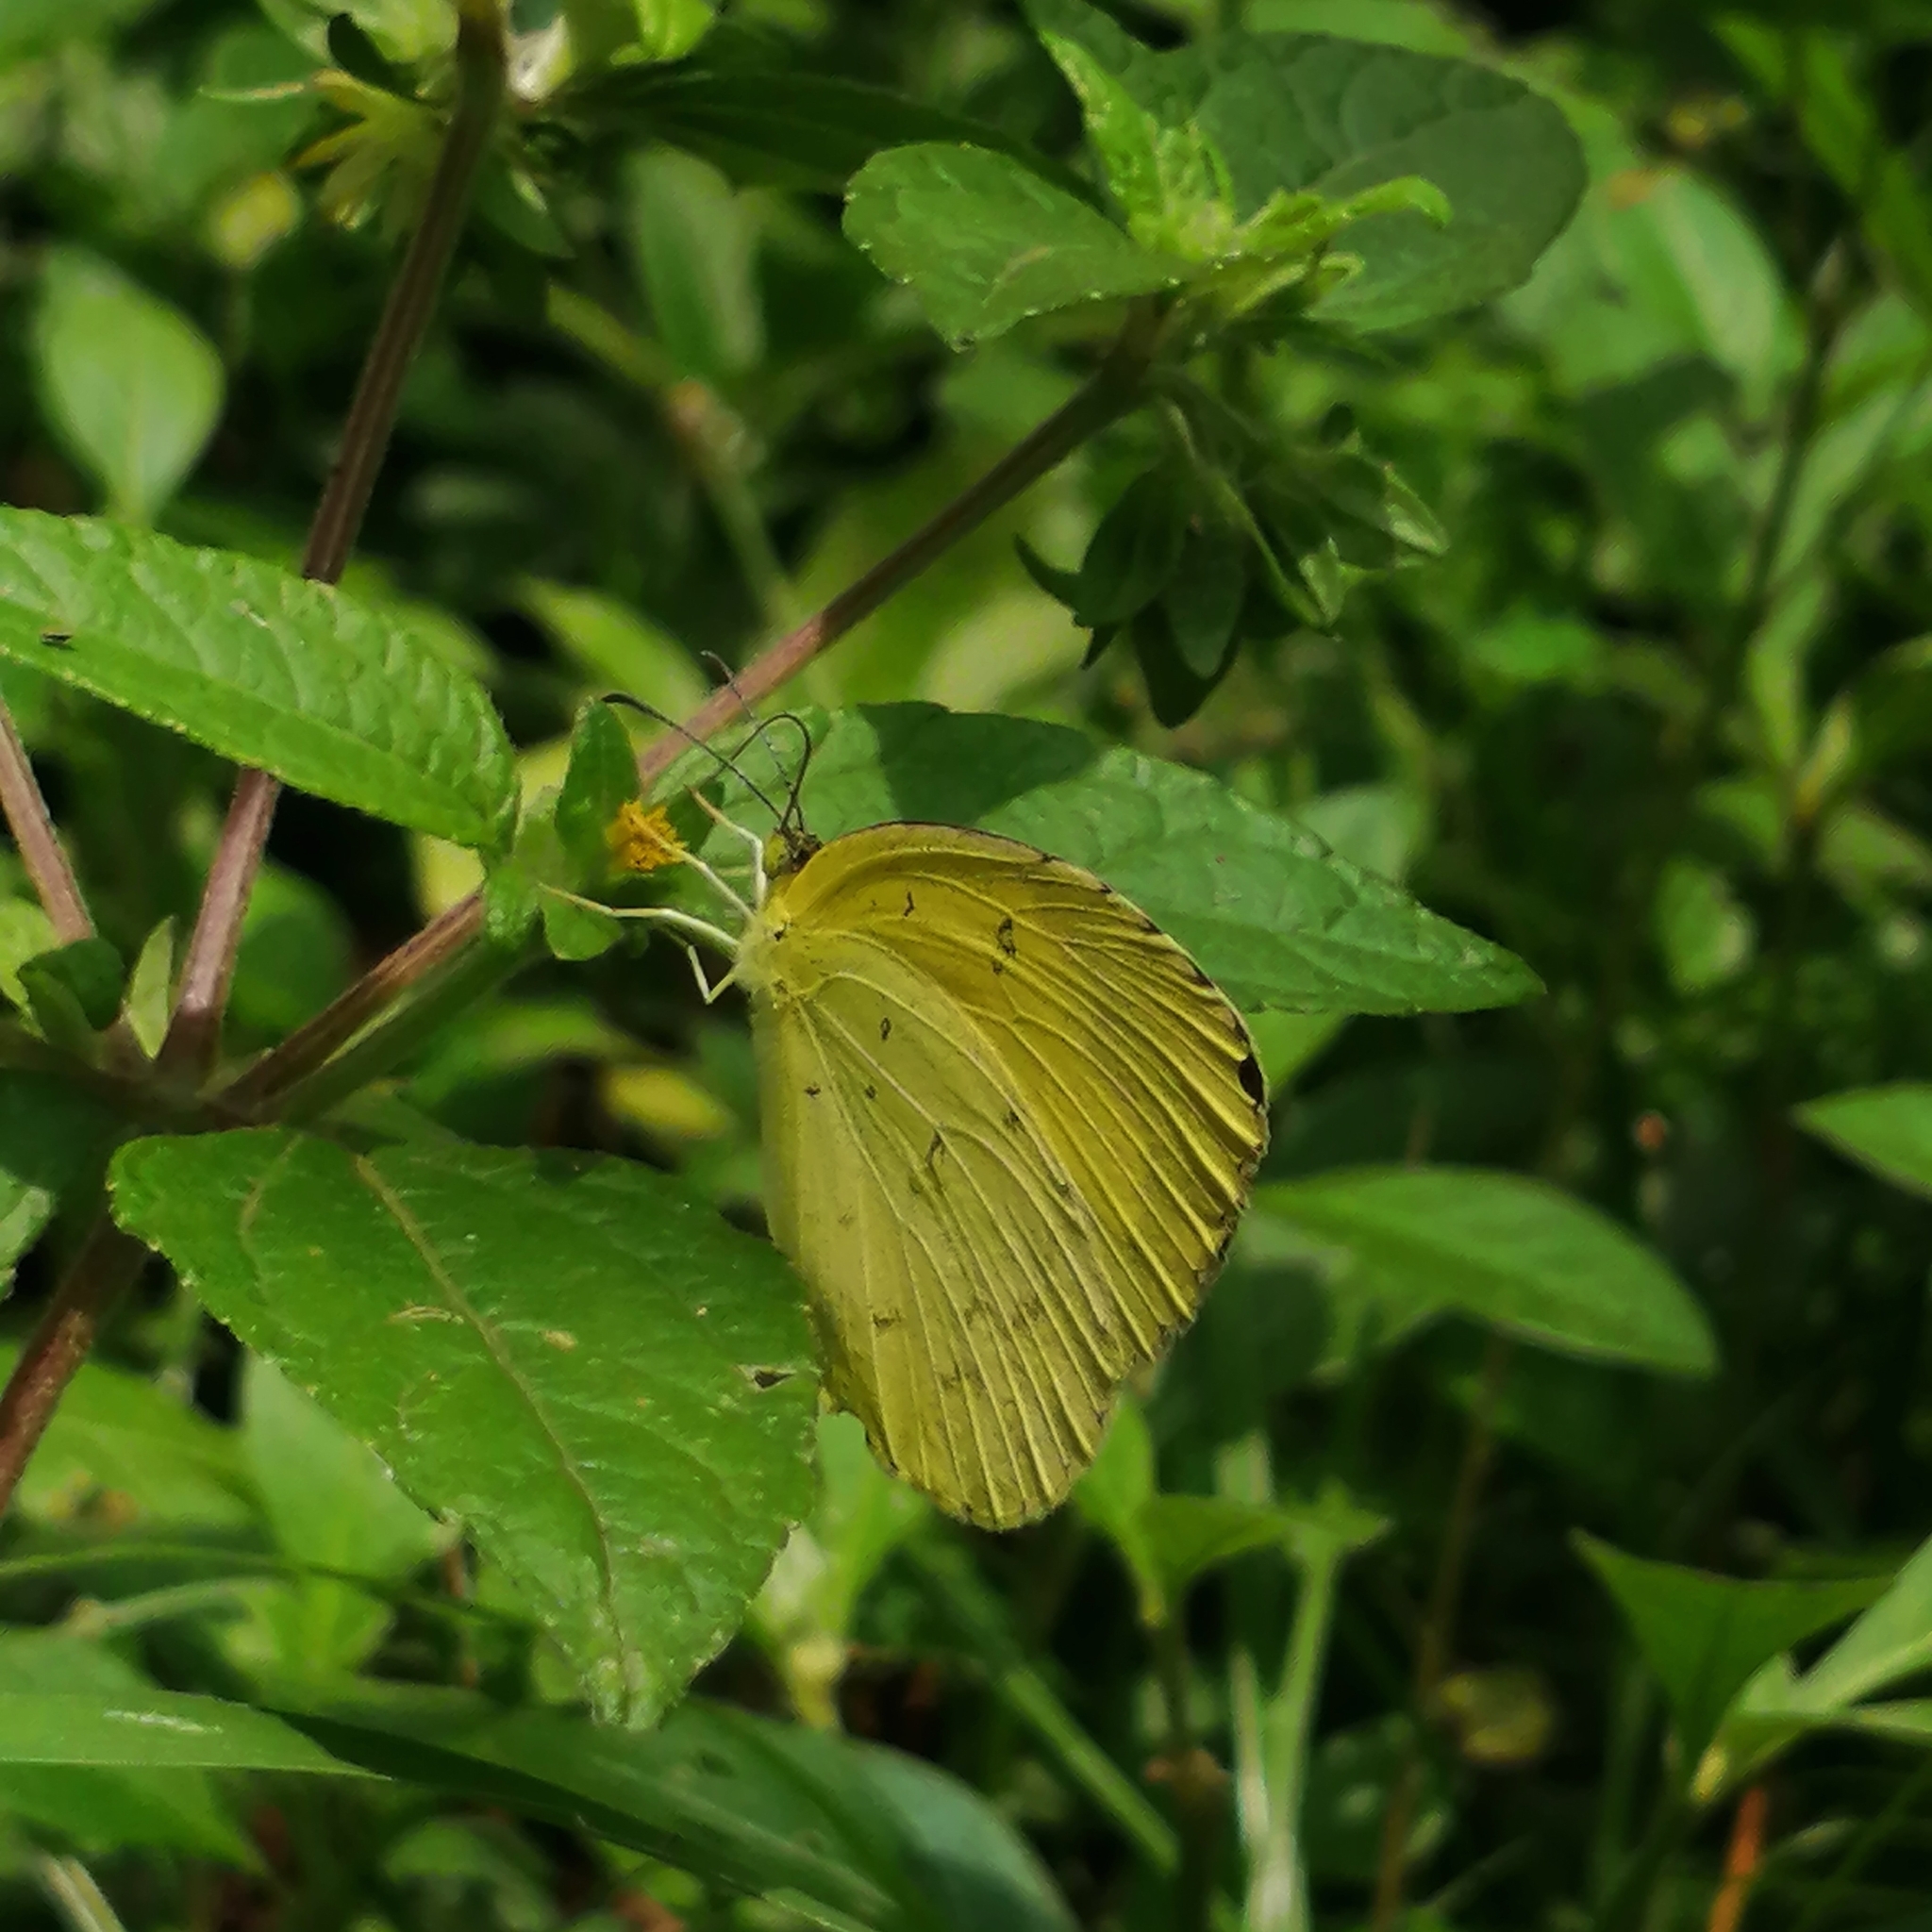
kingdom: Animalia
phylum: Arthropoda
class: Insecta
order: Lepidoptera
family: Pieridae
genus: Eurema
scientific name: Eurema hecabe
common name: Pale grass yellow
